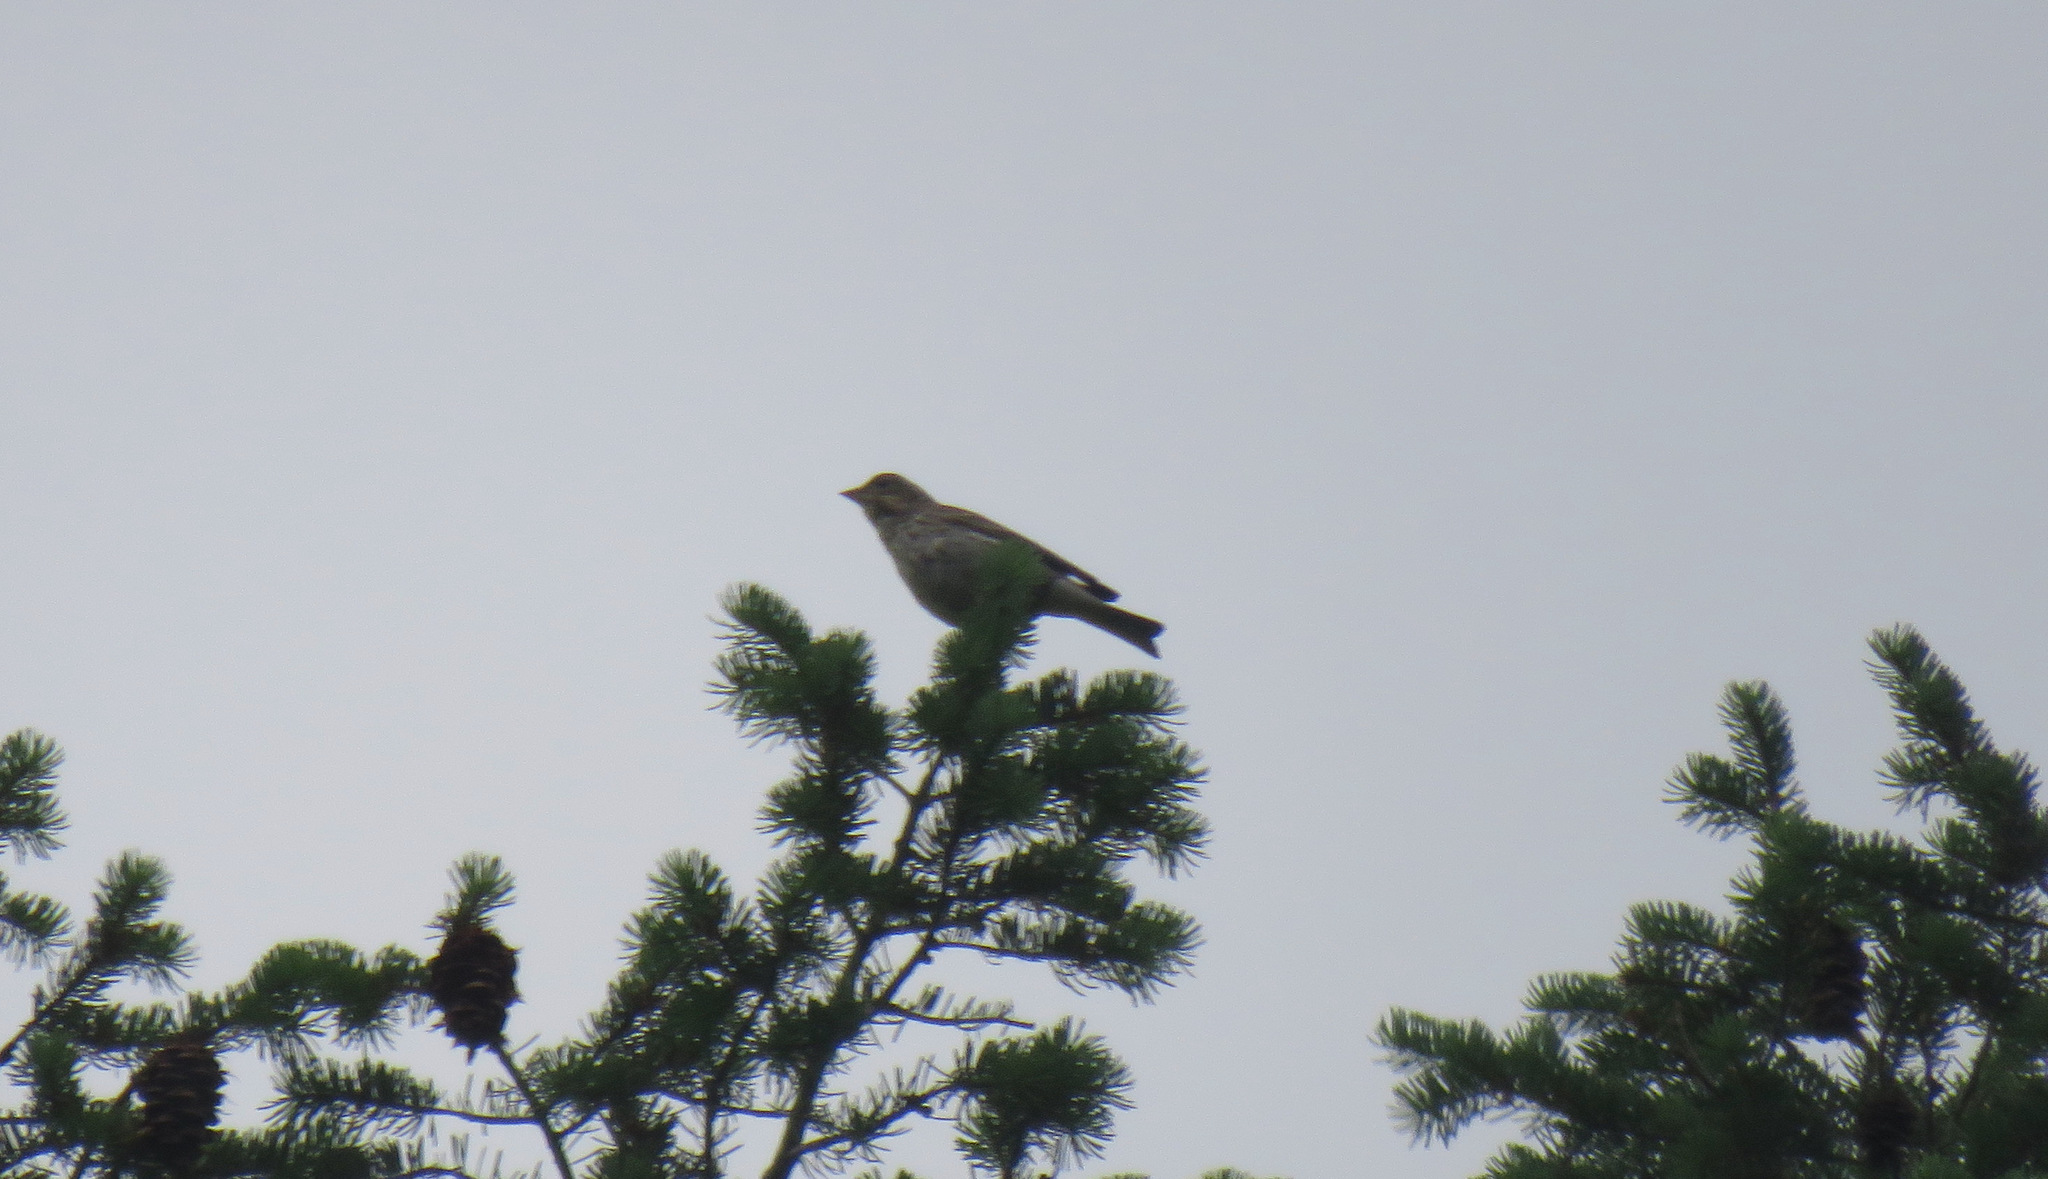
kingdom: Animalia
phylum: Chordata
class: Aves
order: Passeriformes
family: Fringillidae
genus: Haemorhous
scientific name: Haemorhous cassinii
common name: Cassin's finch
